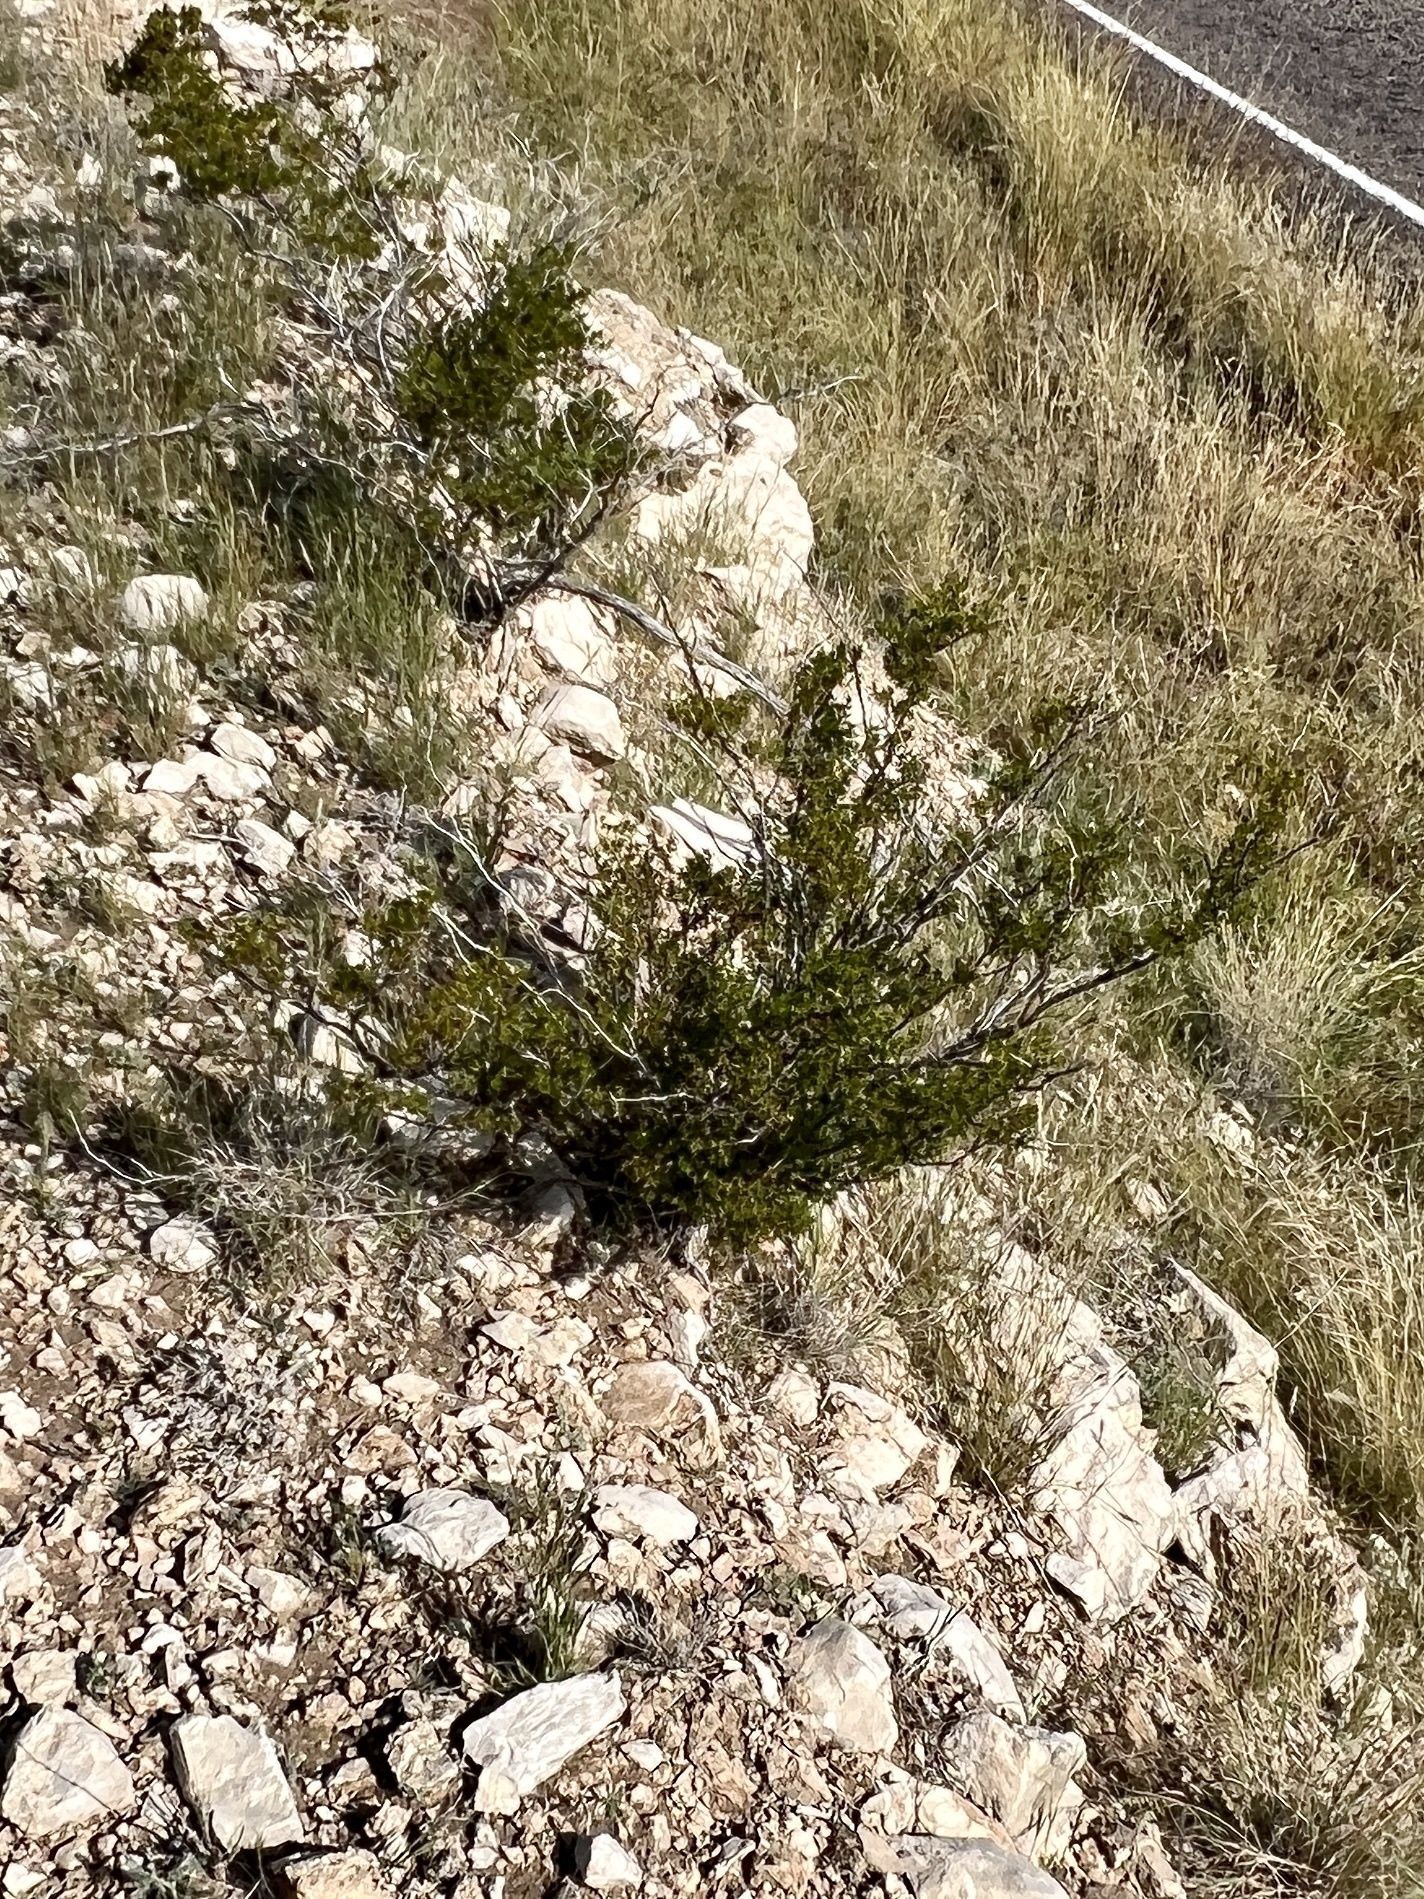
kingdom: Plantae
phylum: Tracheophyta
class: Magnoliopsida
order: Zygophyllales
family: Zygophyllaceae
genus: Larrea
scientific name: Larrea tridentata
